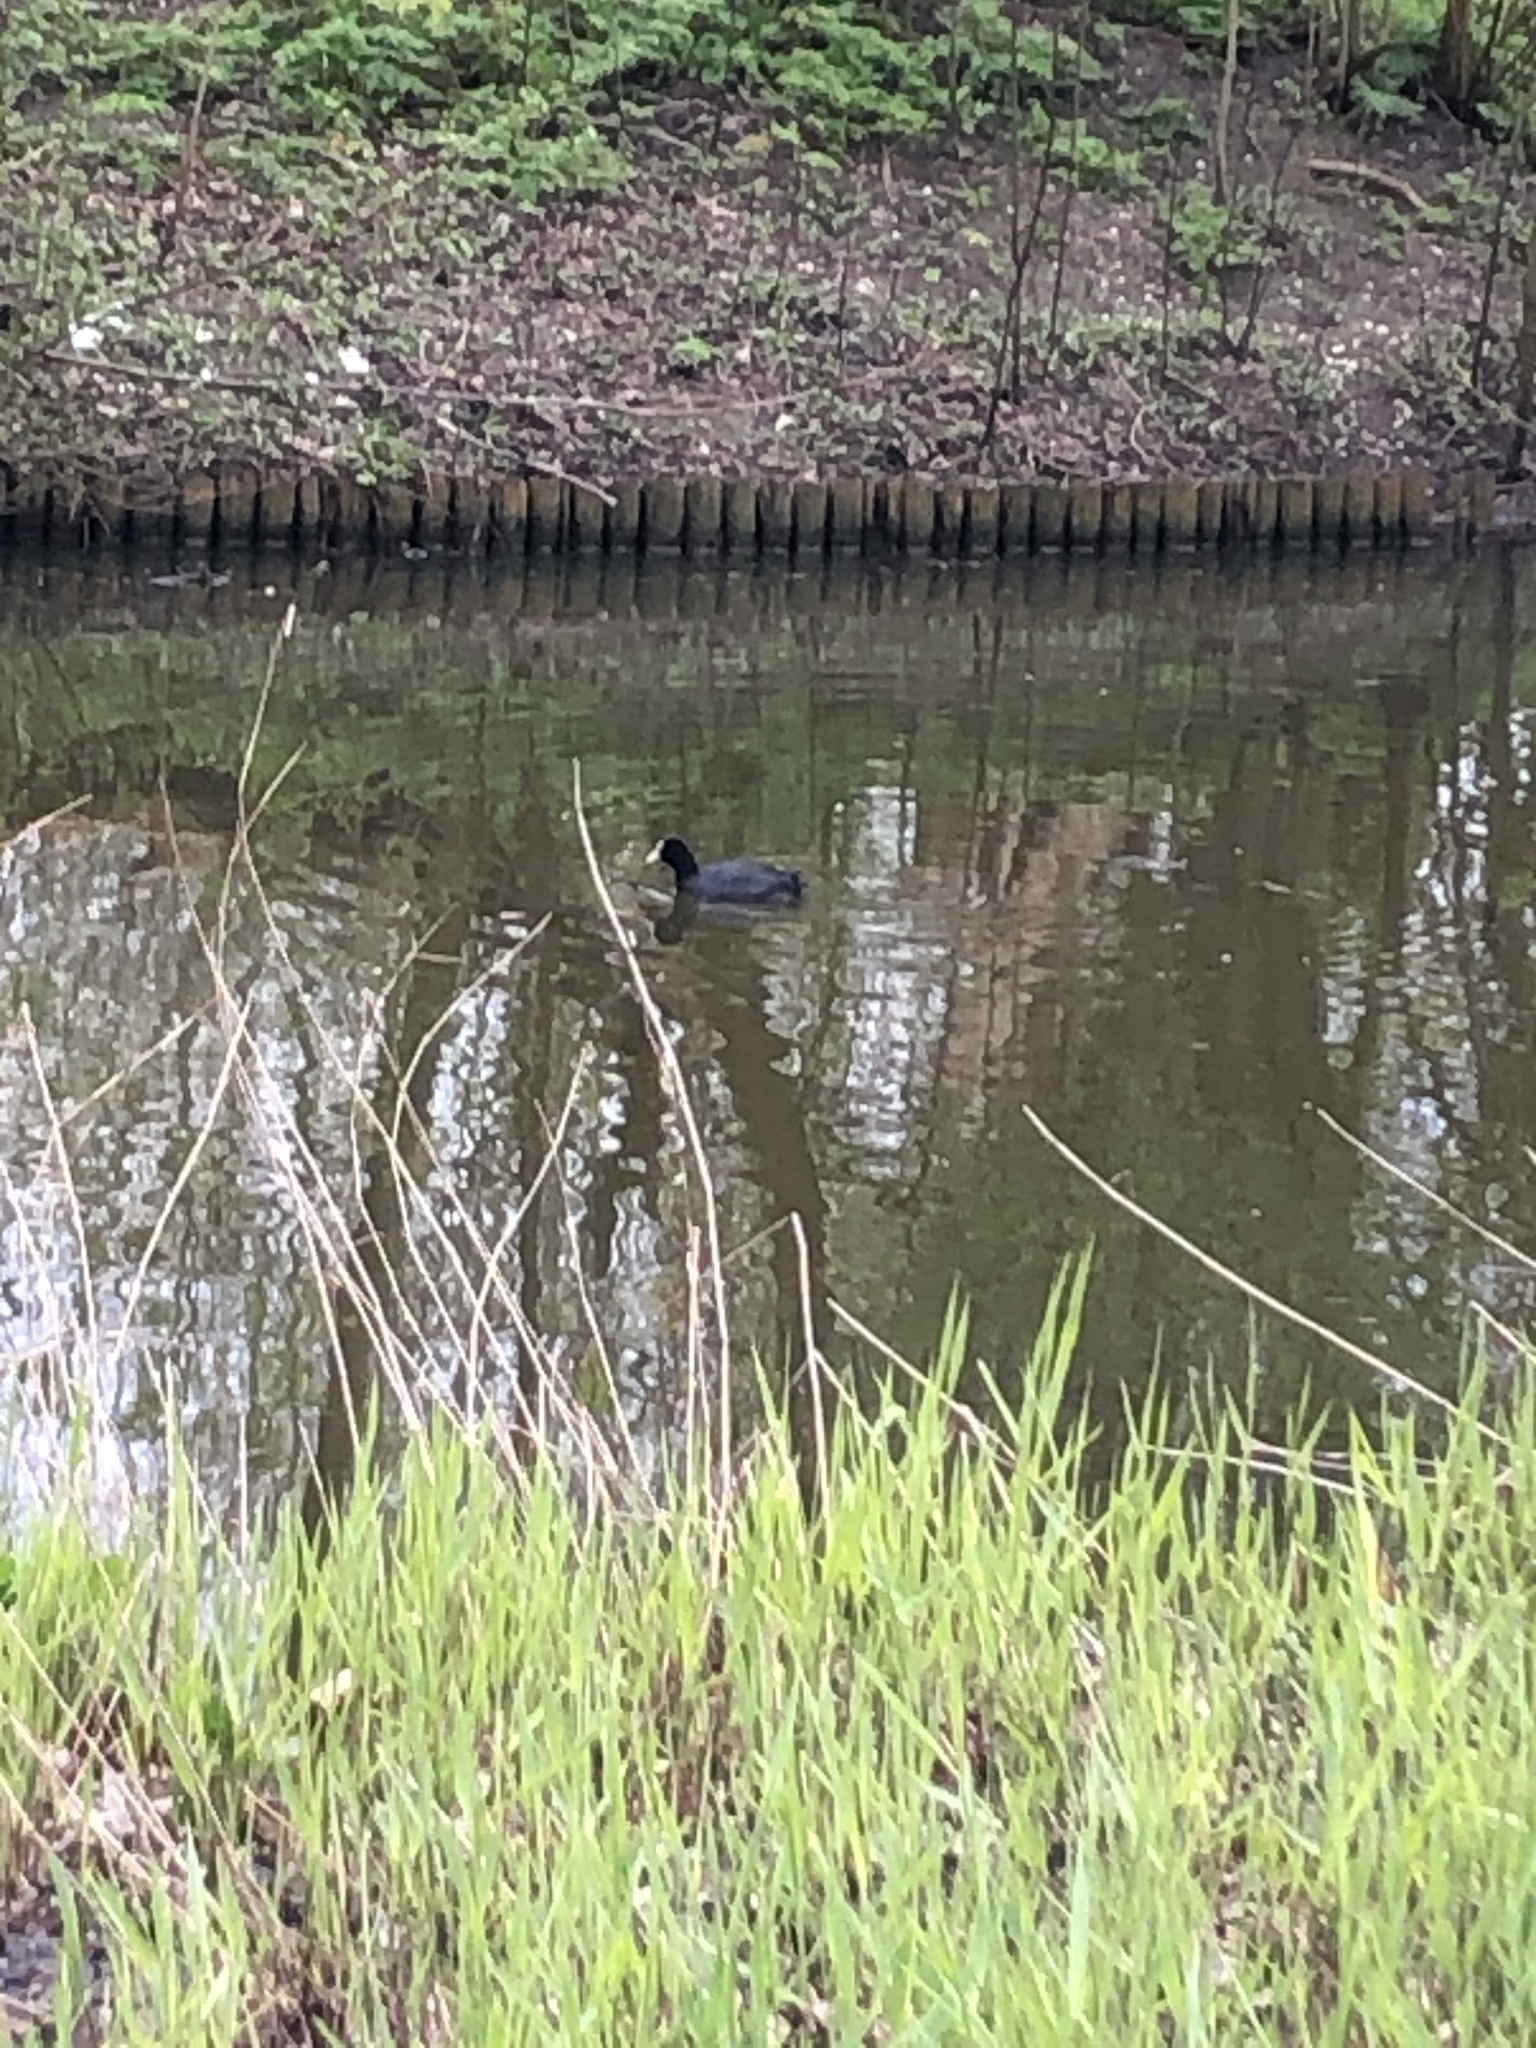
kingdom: Animalia
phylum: Chordata
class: Aves
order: Gruiformes
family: Rallidae
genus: Fulica
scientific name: Fulica atra
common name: Eurasian coot
